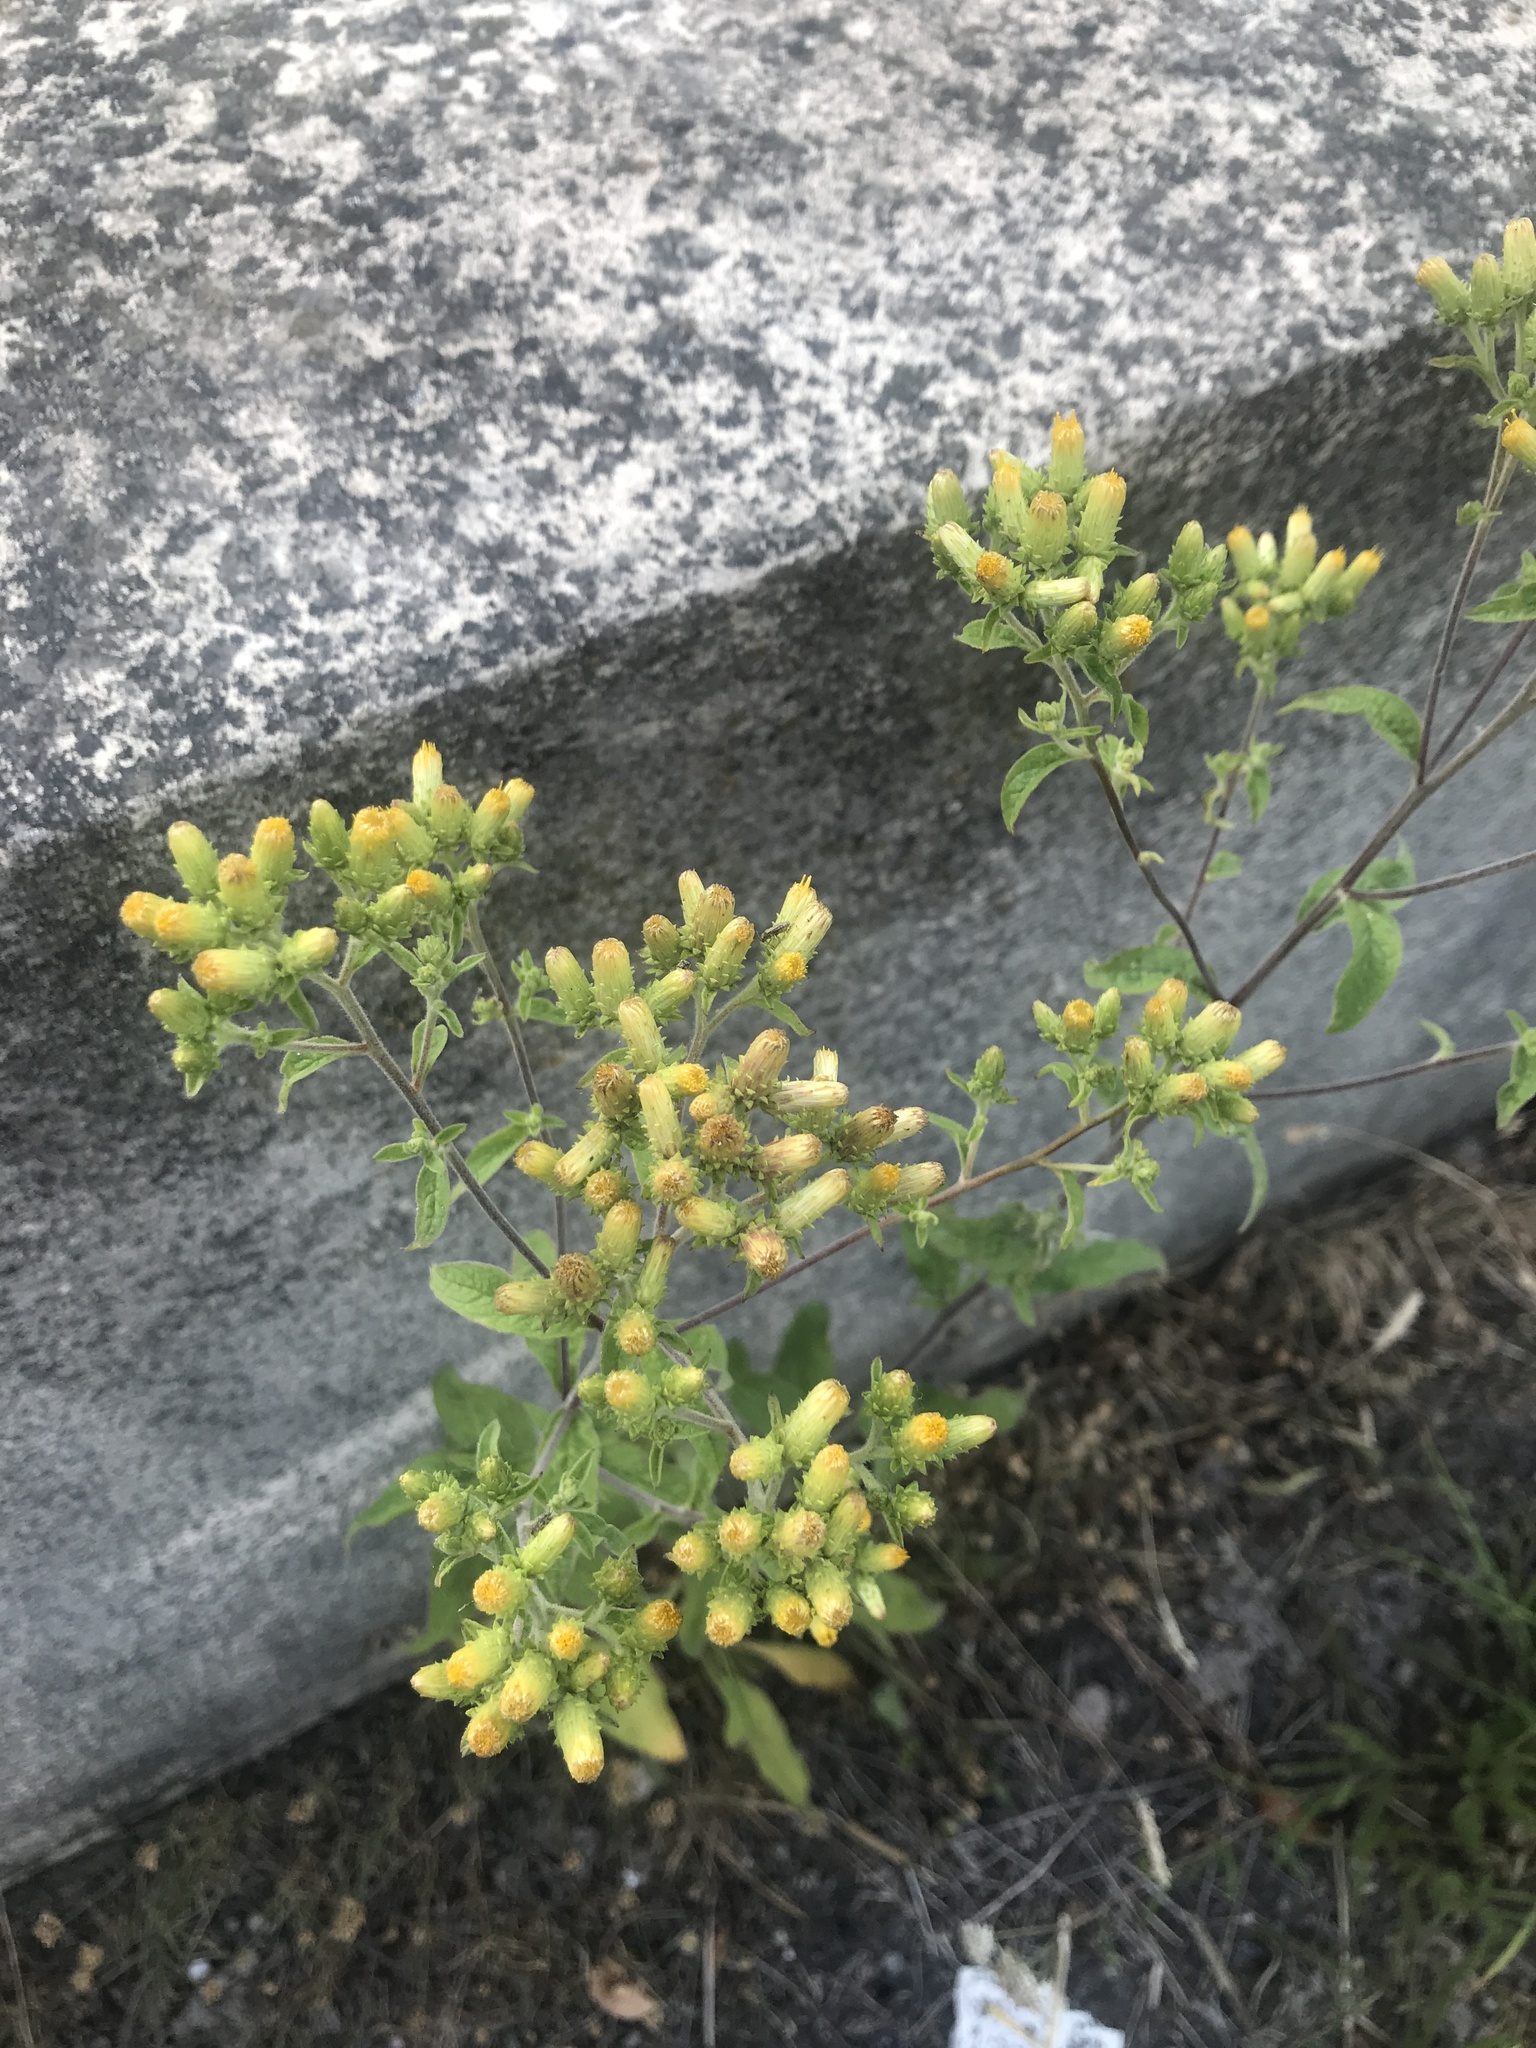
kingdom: Plantae
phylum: Tracheophyta
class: Magnoliopsida
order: Asterales
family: Asteraceae
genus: Pentanema
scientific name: Pentanema squarrosum
